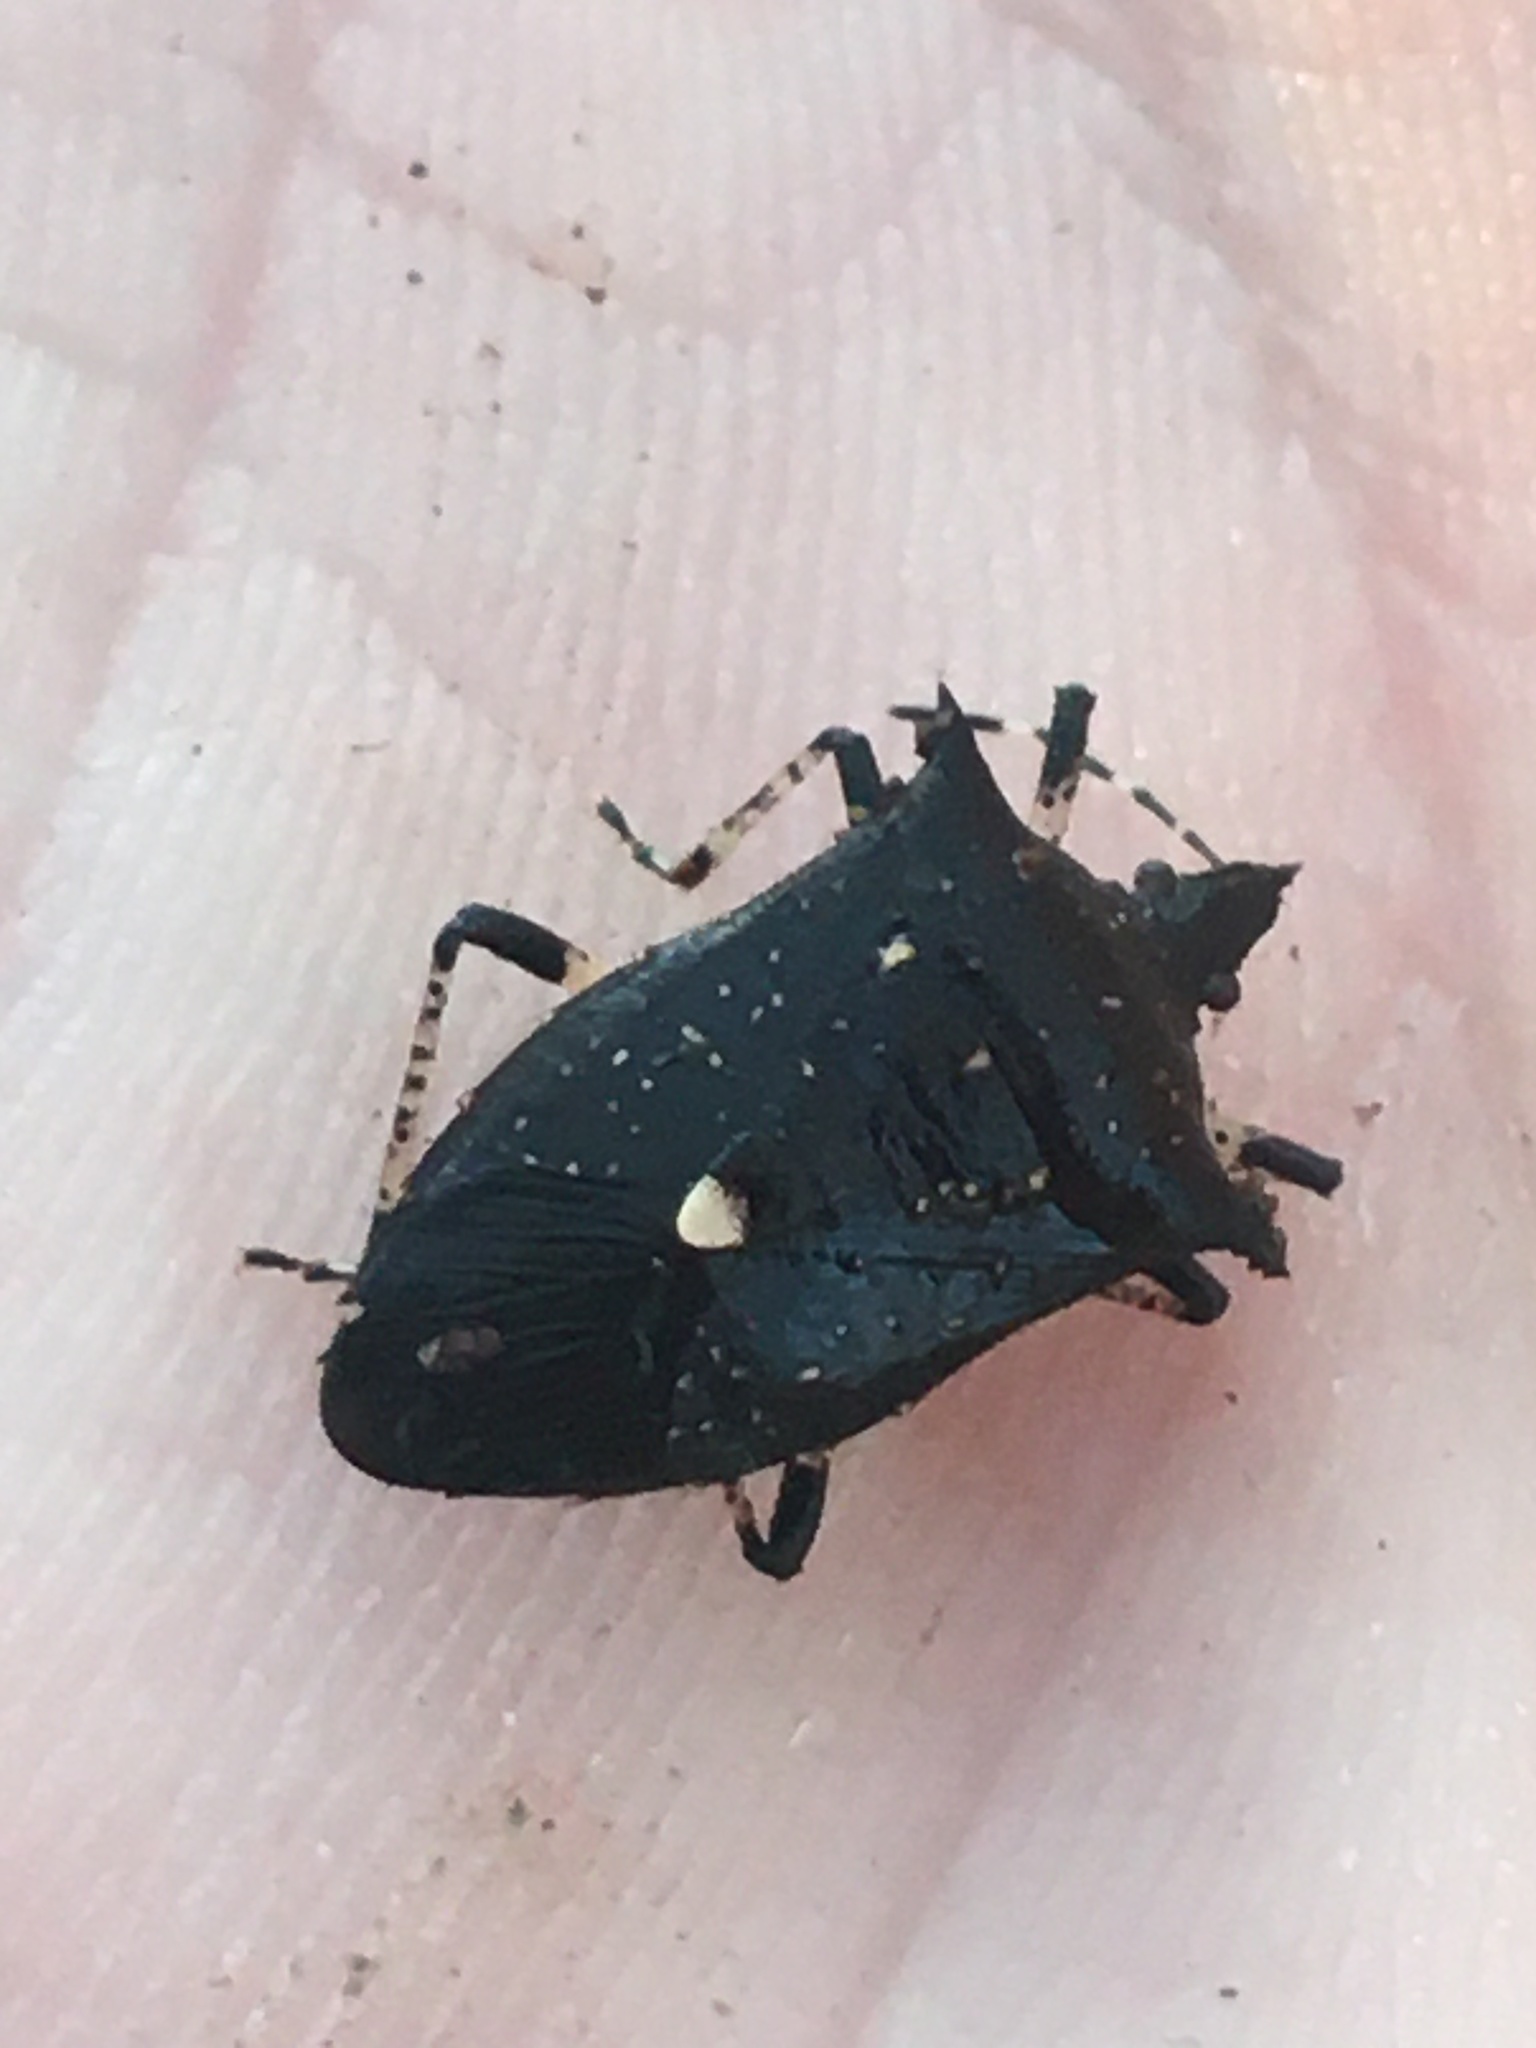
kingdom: Animalia
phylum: Arthropoda
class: Insecta
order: Hemiptera
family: Pentatomidae
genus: Proxys
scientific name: Proxys punctulatus
